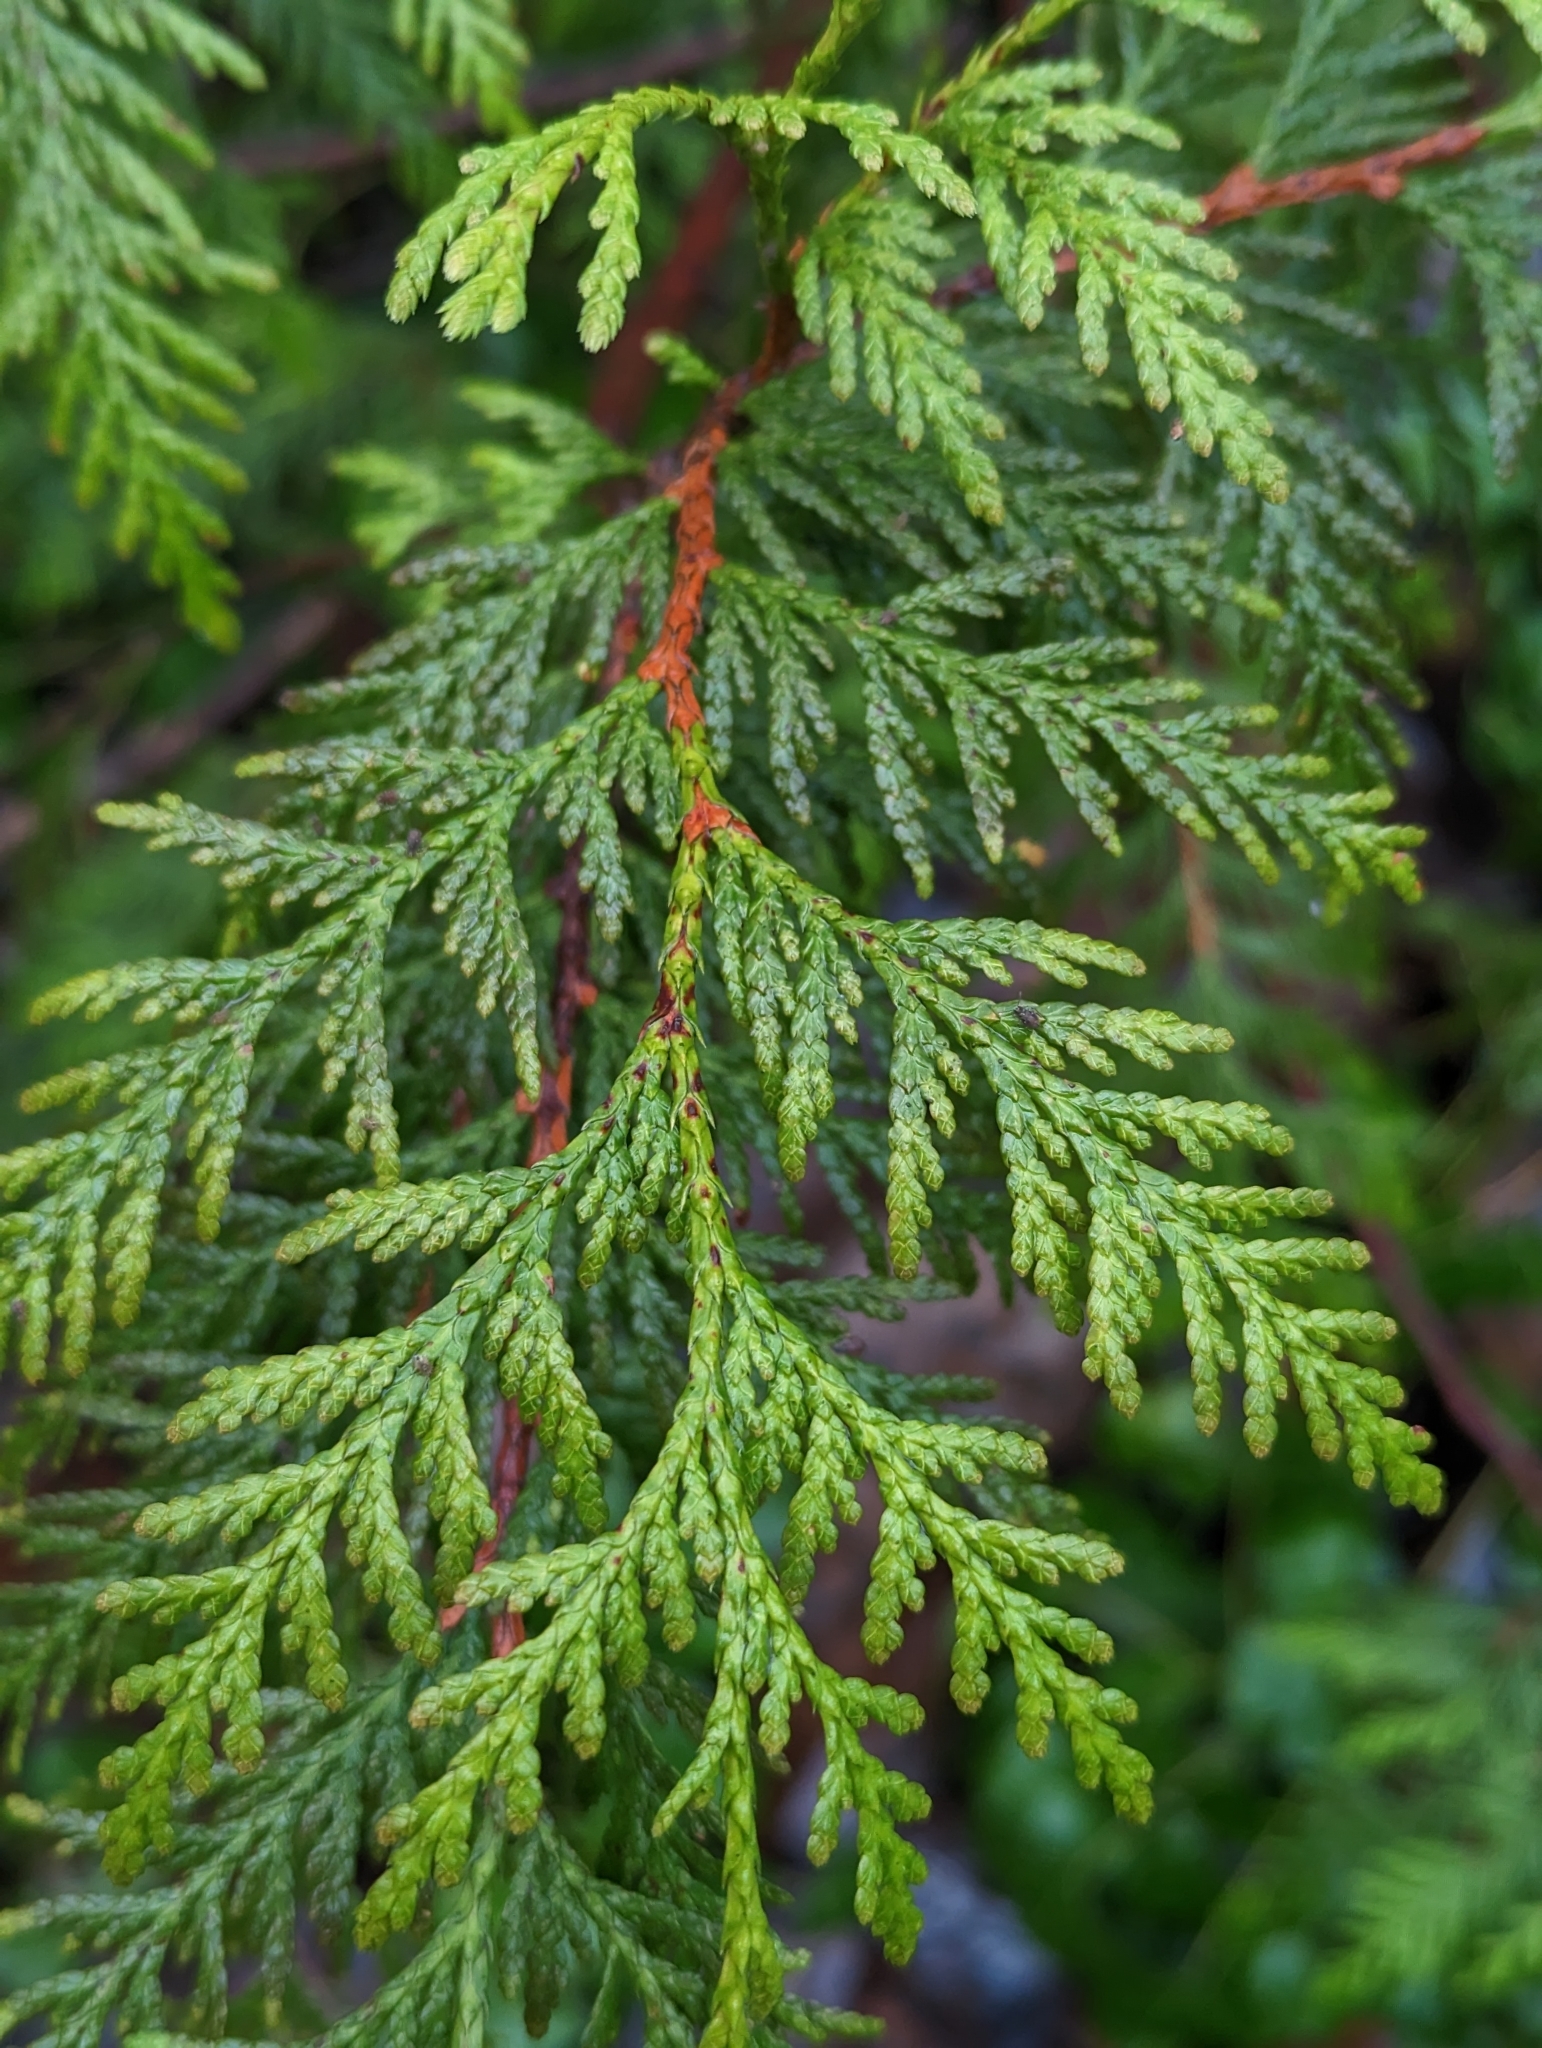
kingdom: Plantae
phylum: Tracheophyta
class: Pinopsida
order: Pinales
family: Cupressaceae
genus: Thuja
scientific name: Thuja plicata
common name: Western red-cedar
